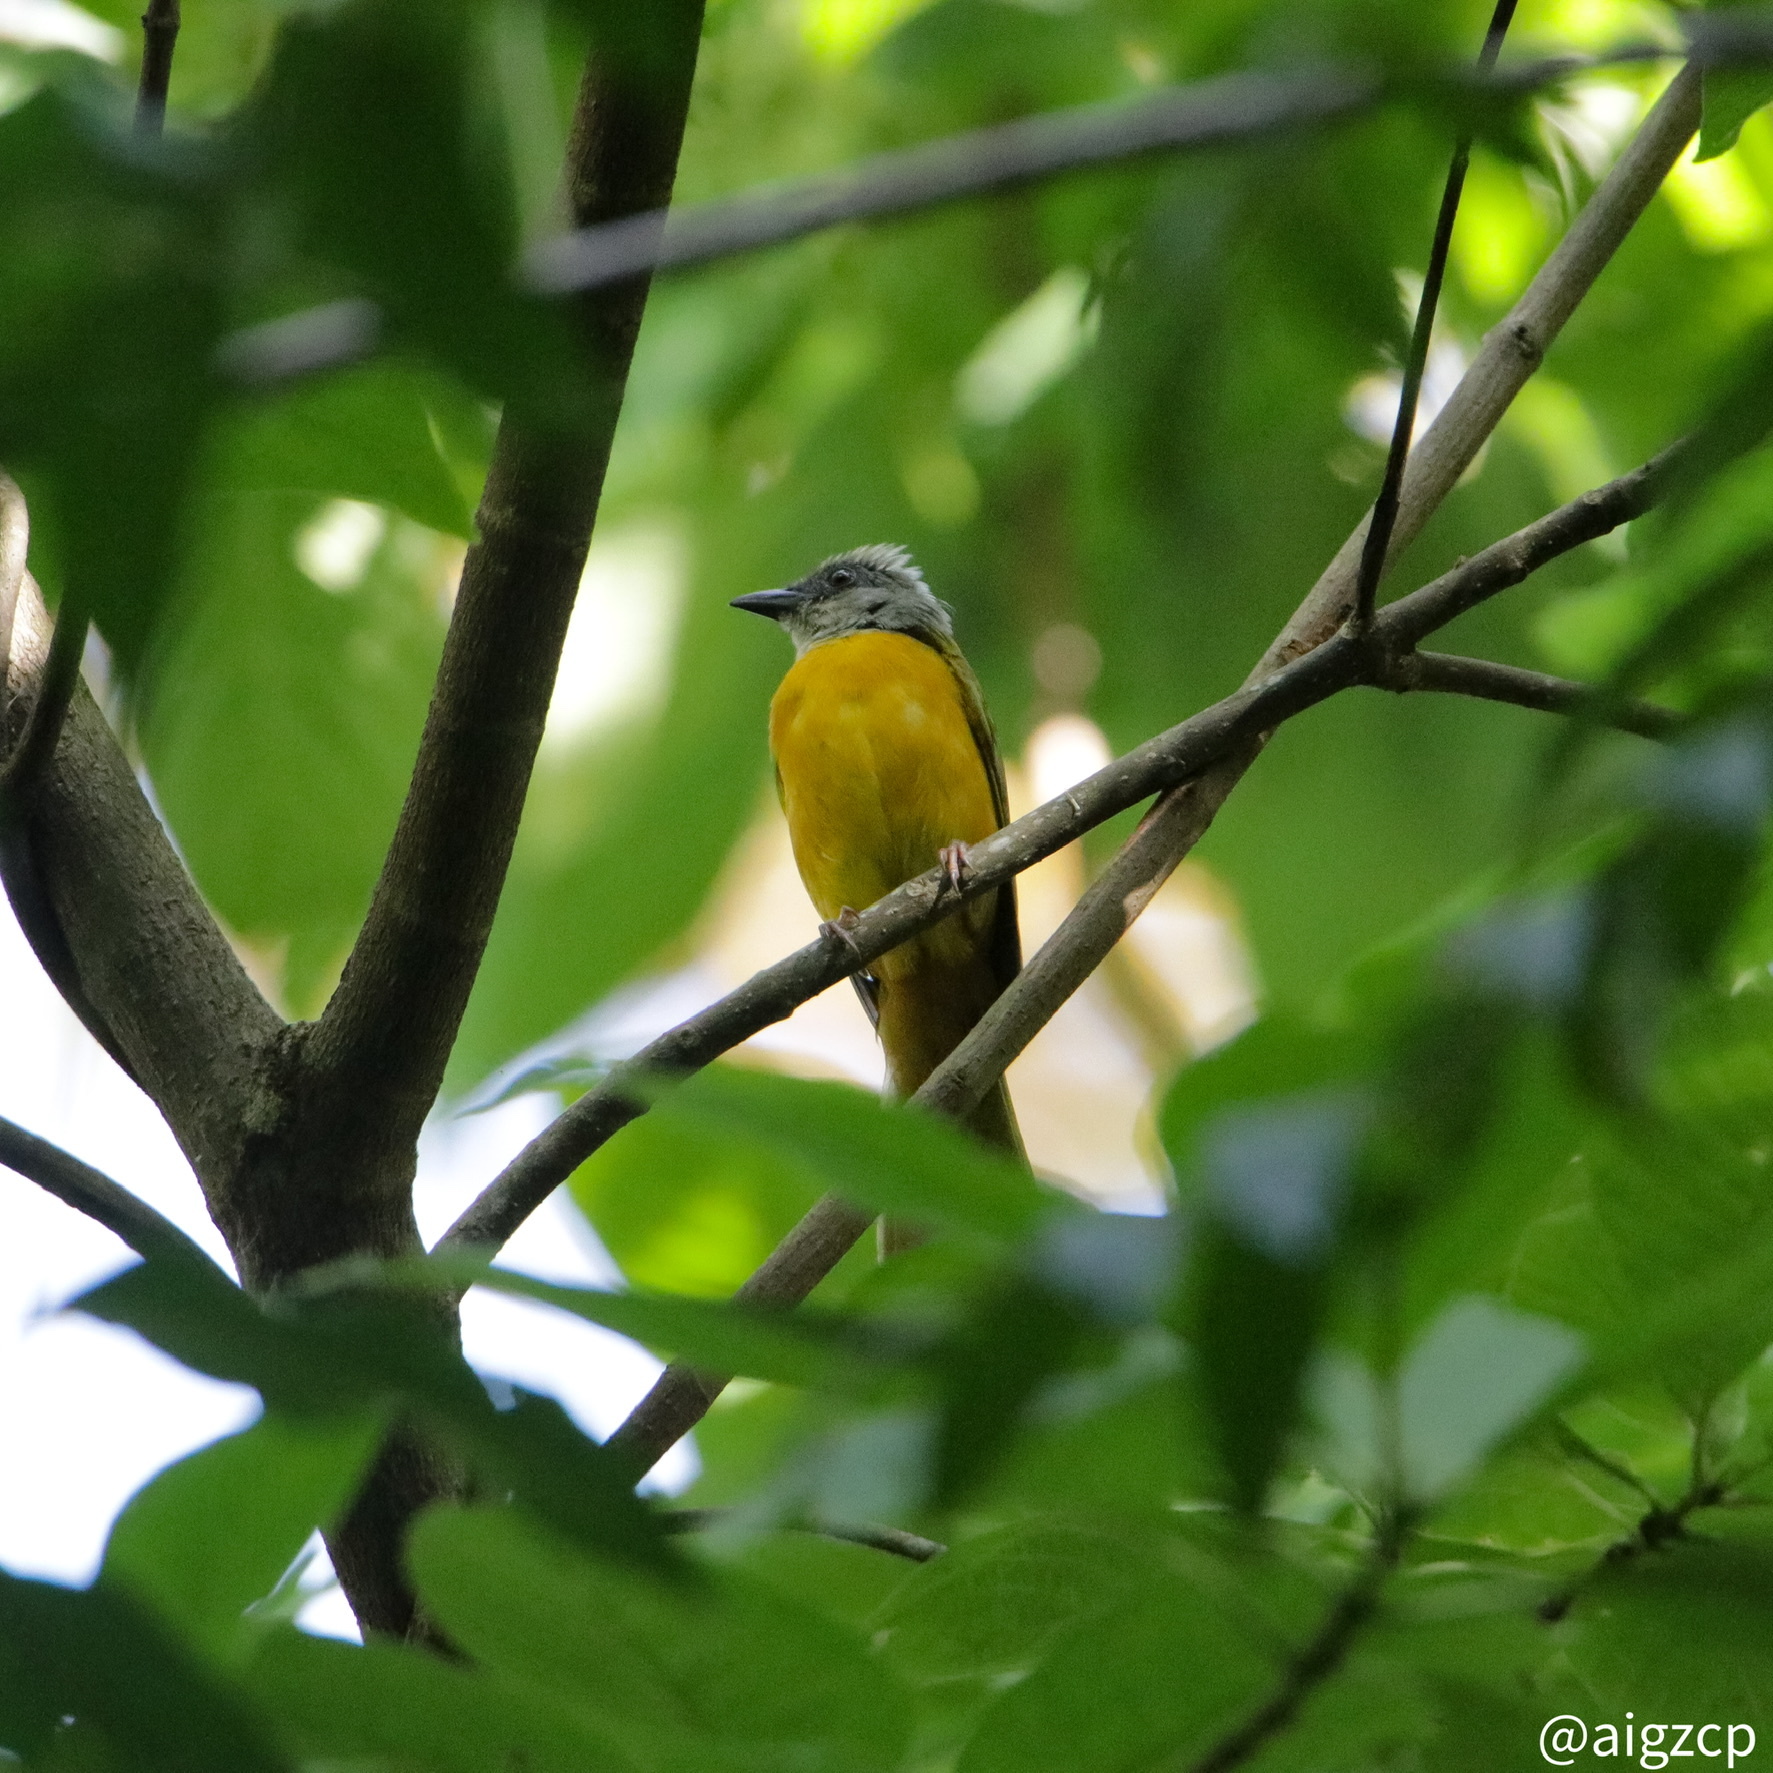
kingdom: Animalia
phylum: Chordata
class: Aves
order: Passeriformes
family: Thraupidae
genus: Eucometis
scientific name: Eucometis penicillata
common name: Grey-headed tanager
